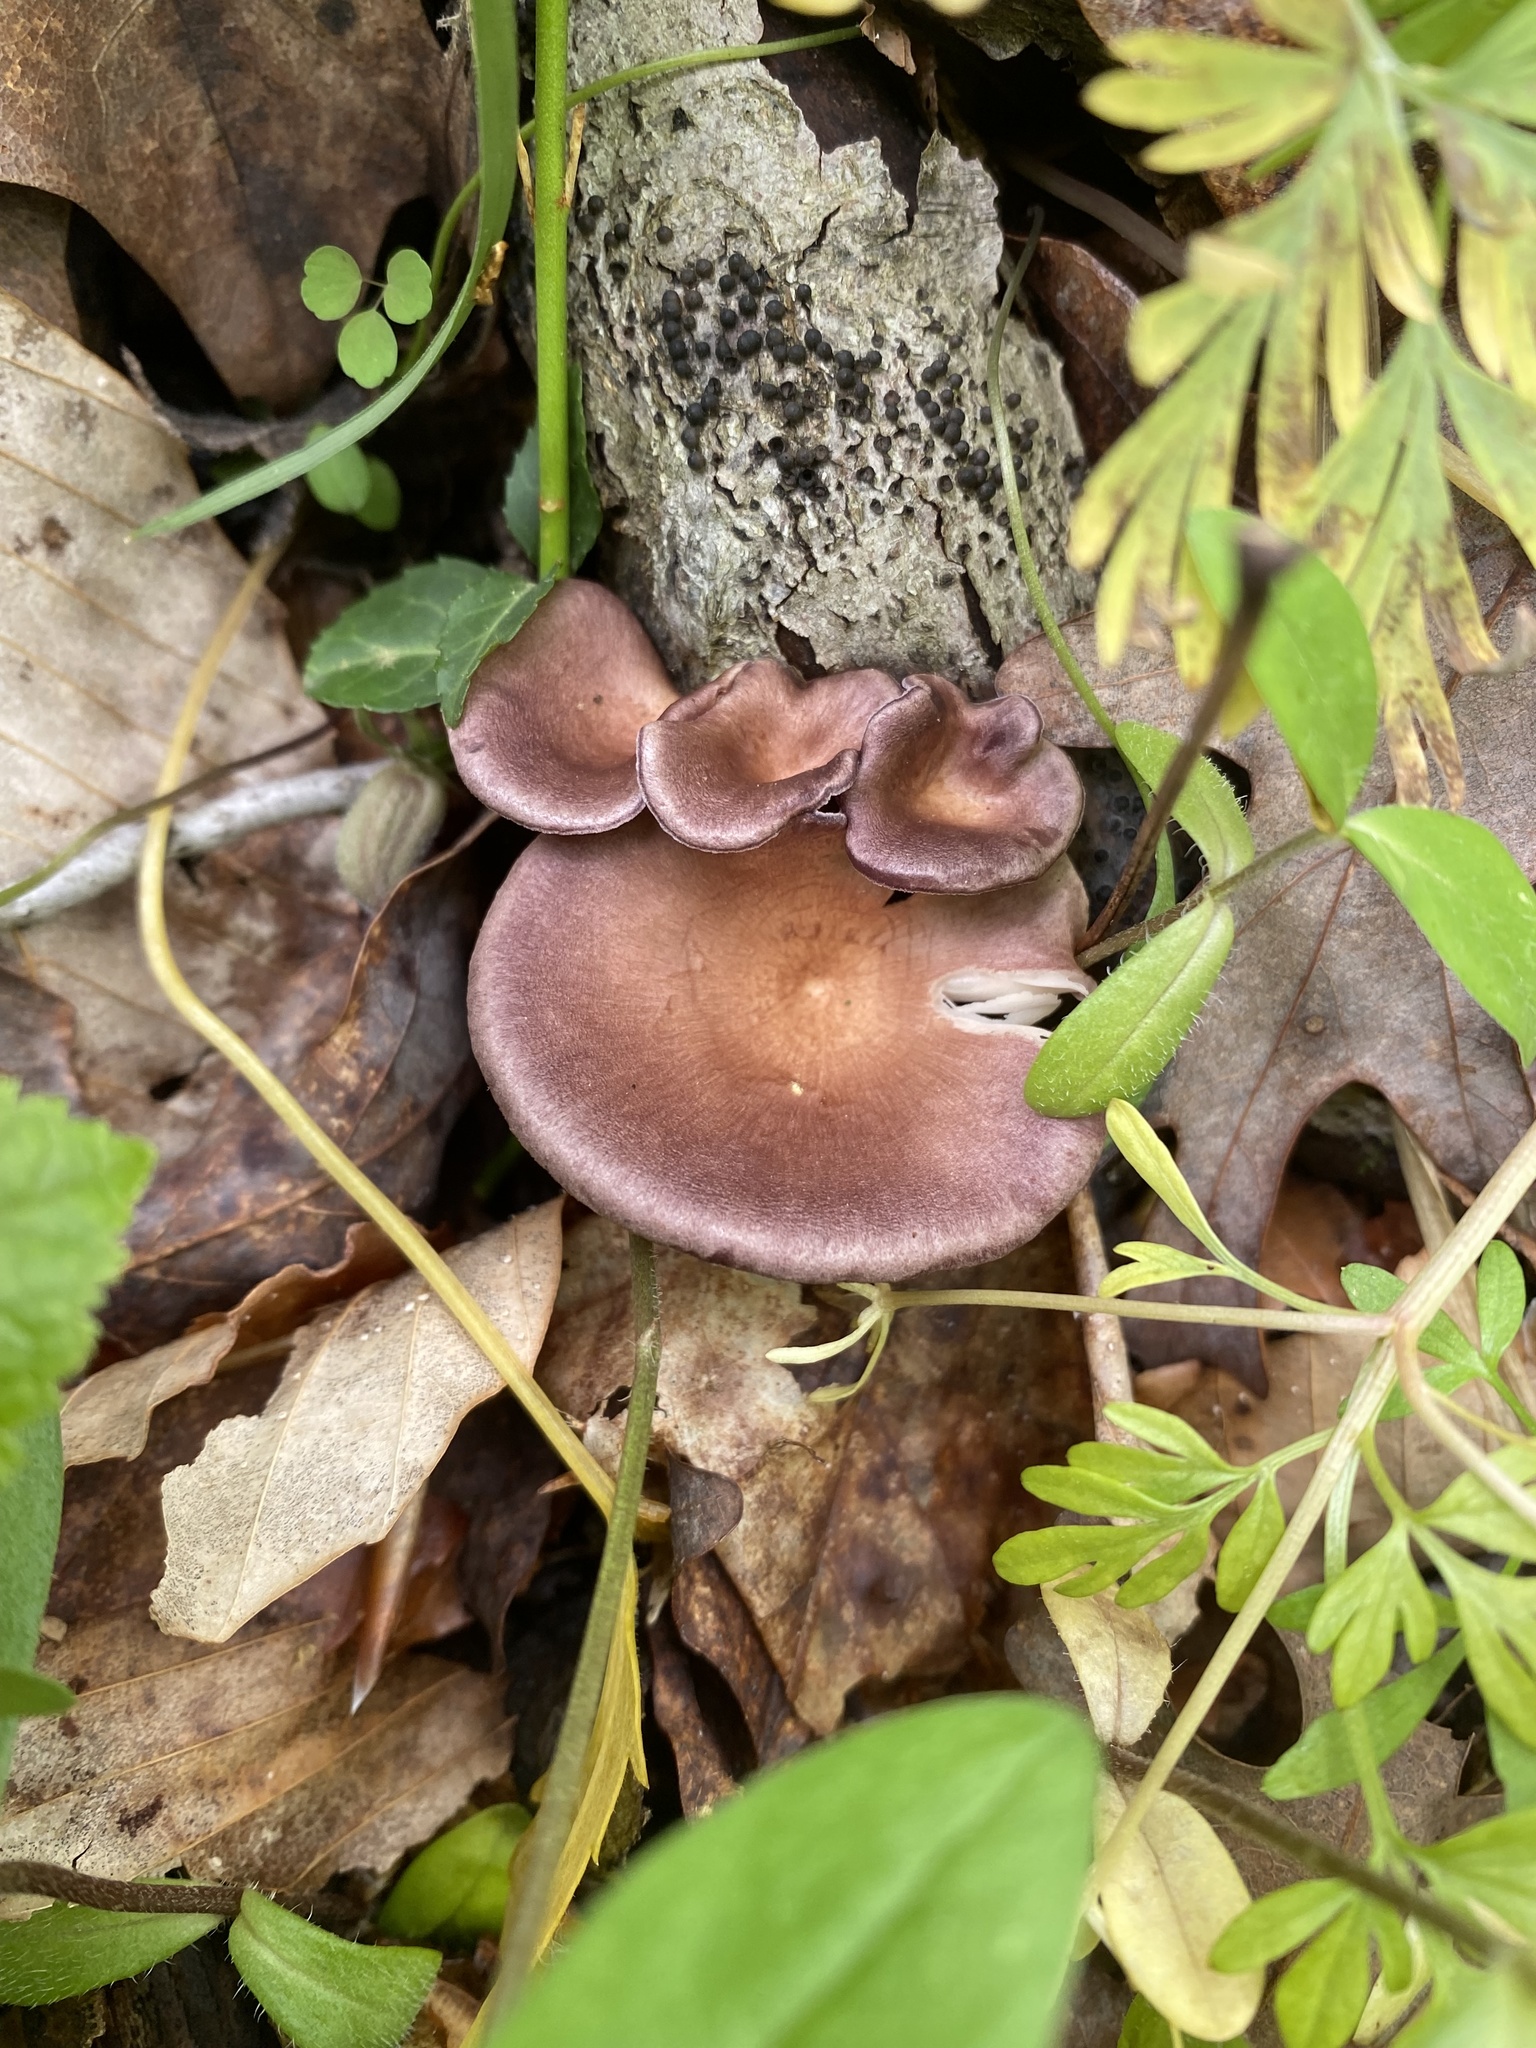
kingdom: Fungi
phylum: Basidiomycota
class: Agaricomycetes
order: Polyporales
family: Panaceae
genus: Panus
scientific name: Panus conchatus
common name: Lilac oysterling
